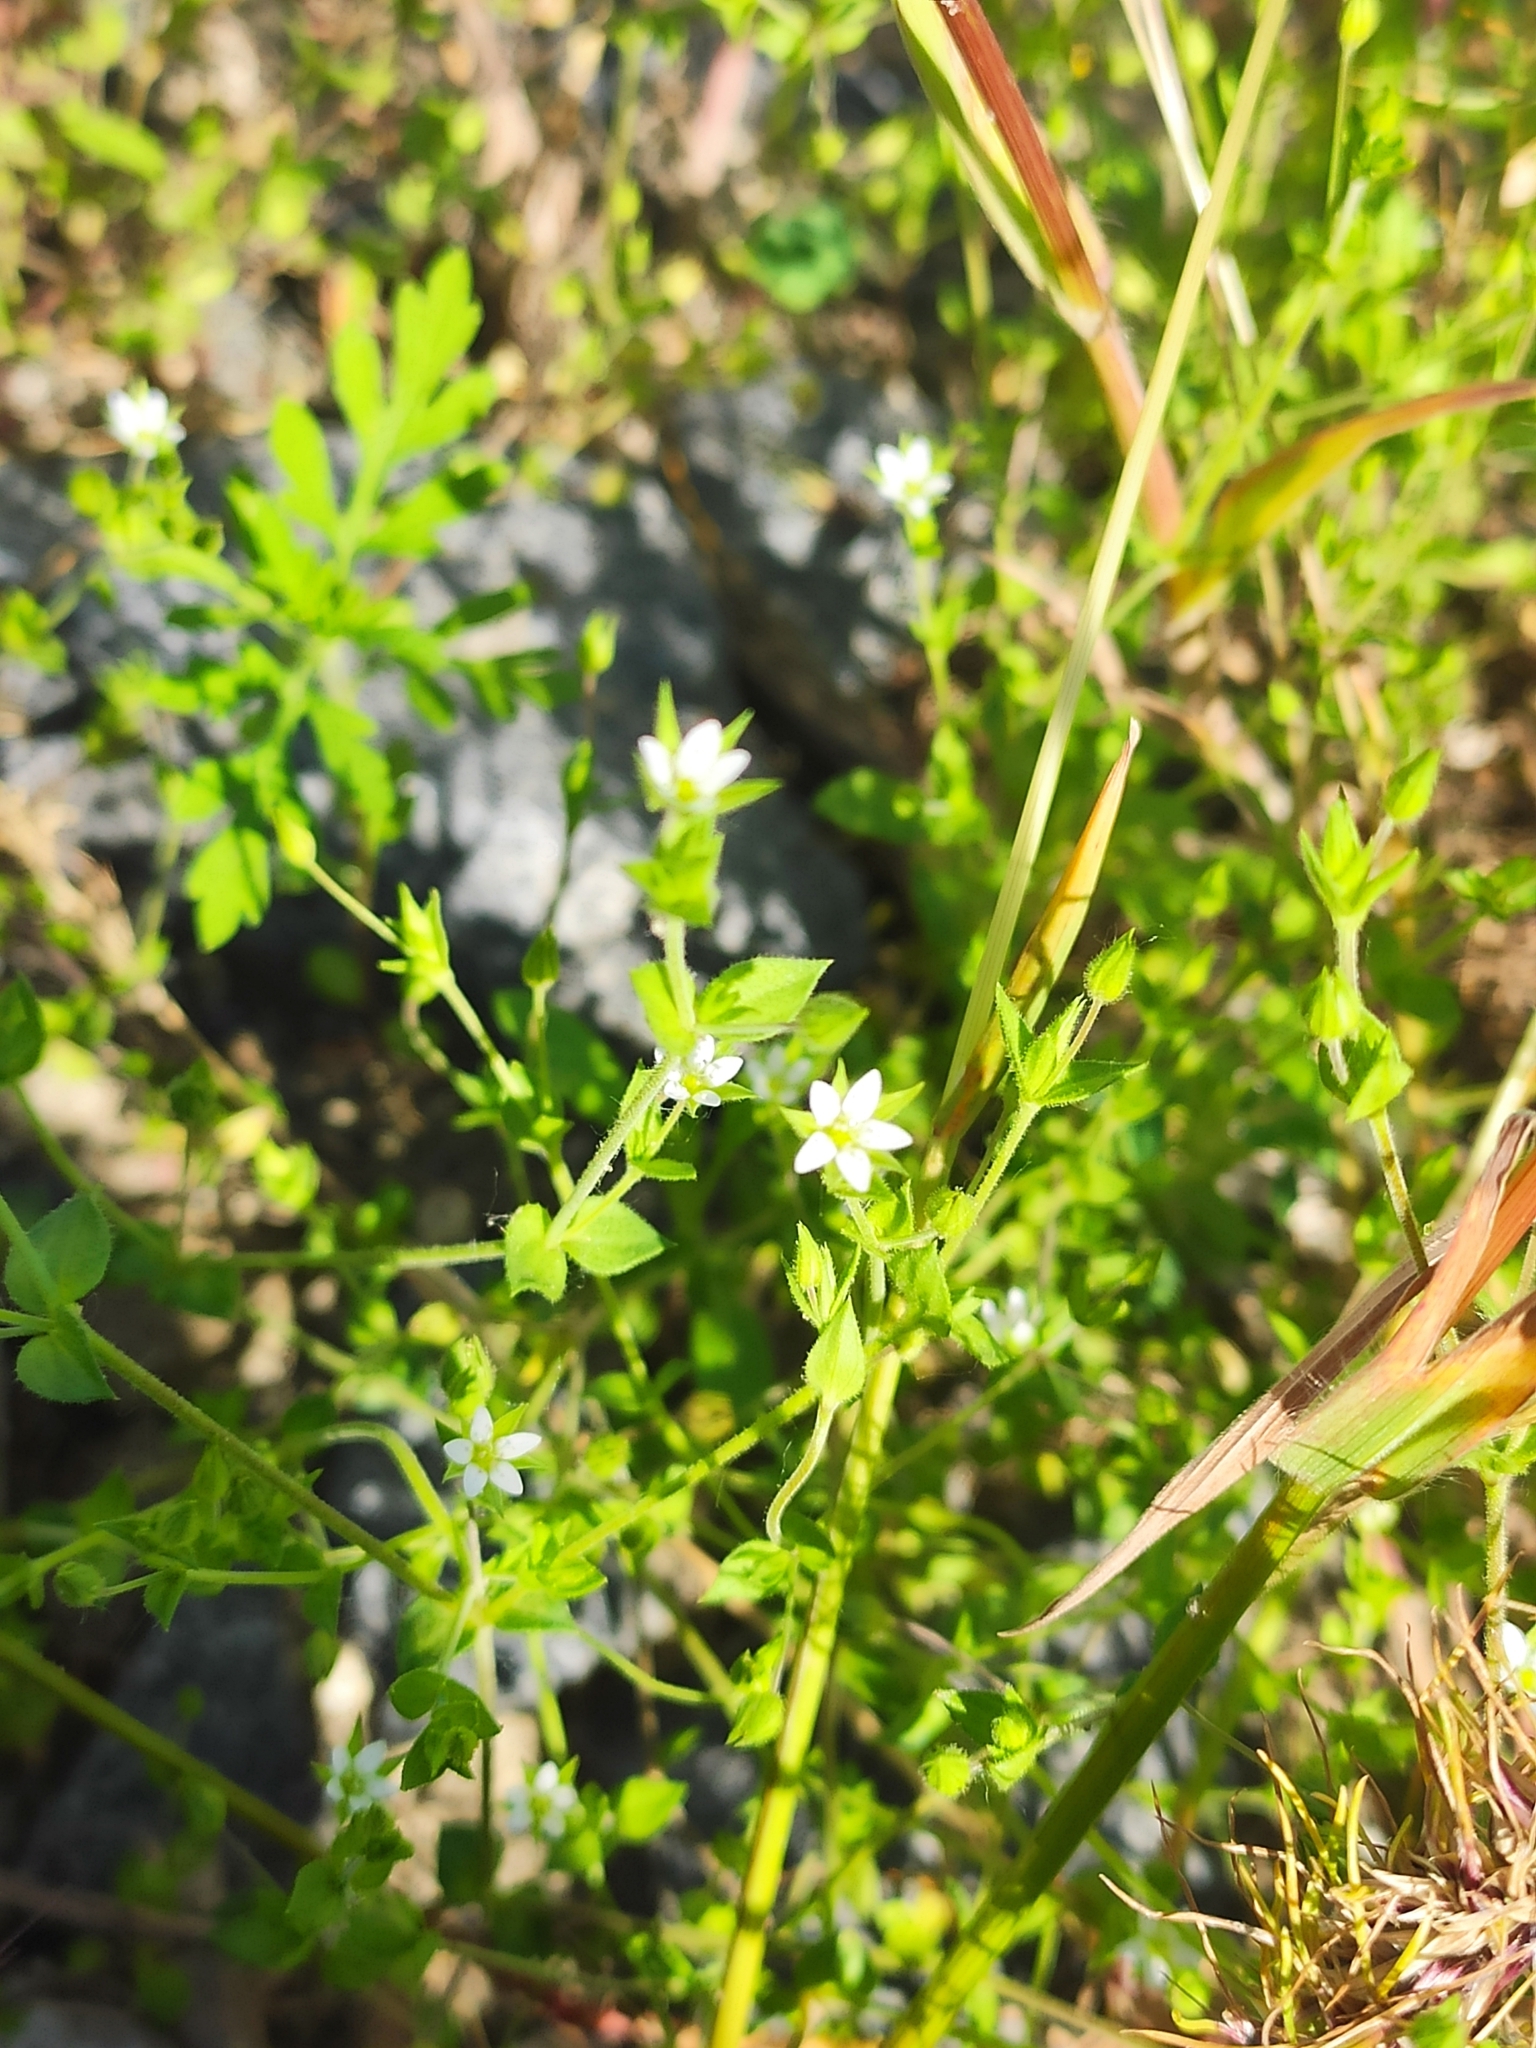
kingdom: Plantae
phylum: Tracheophyta
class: Magnoliopsida
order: Caryophyllales
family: Caryophyllaceae
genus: Arenaria
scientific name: Arenaria serpyllifolia
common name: Thyme-leaved sandwort
